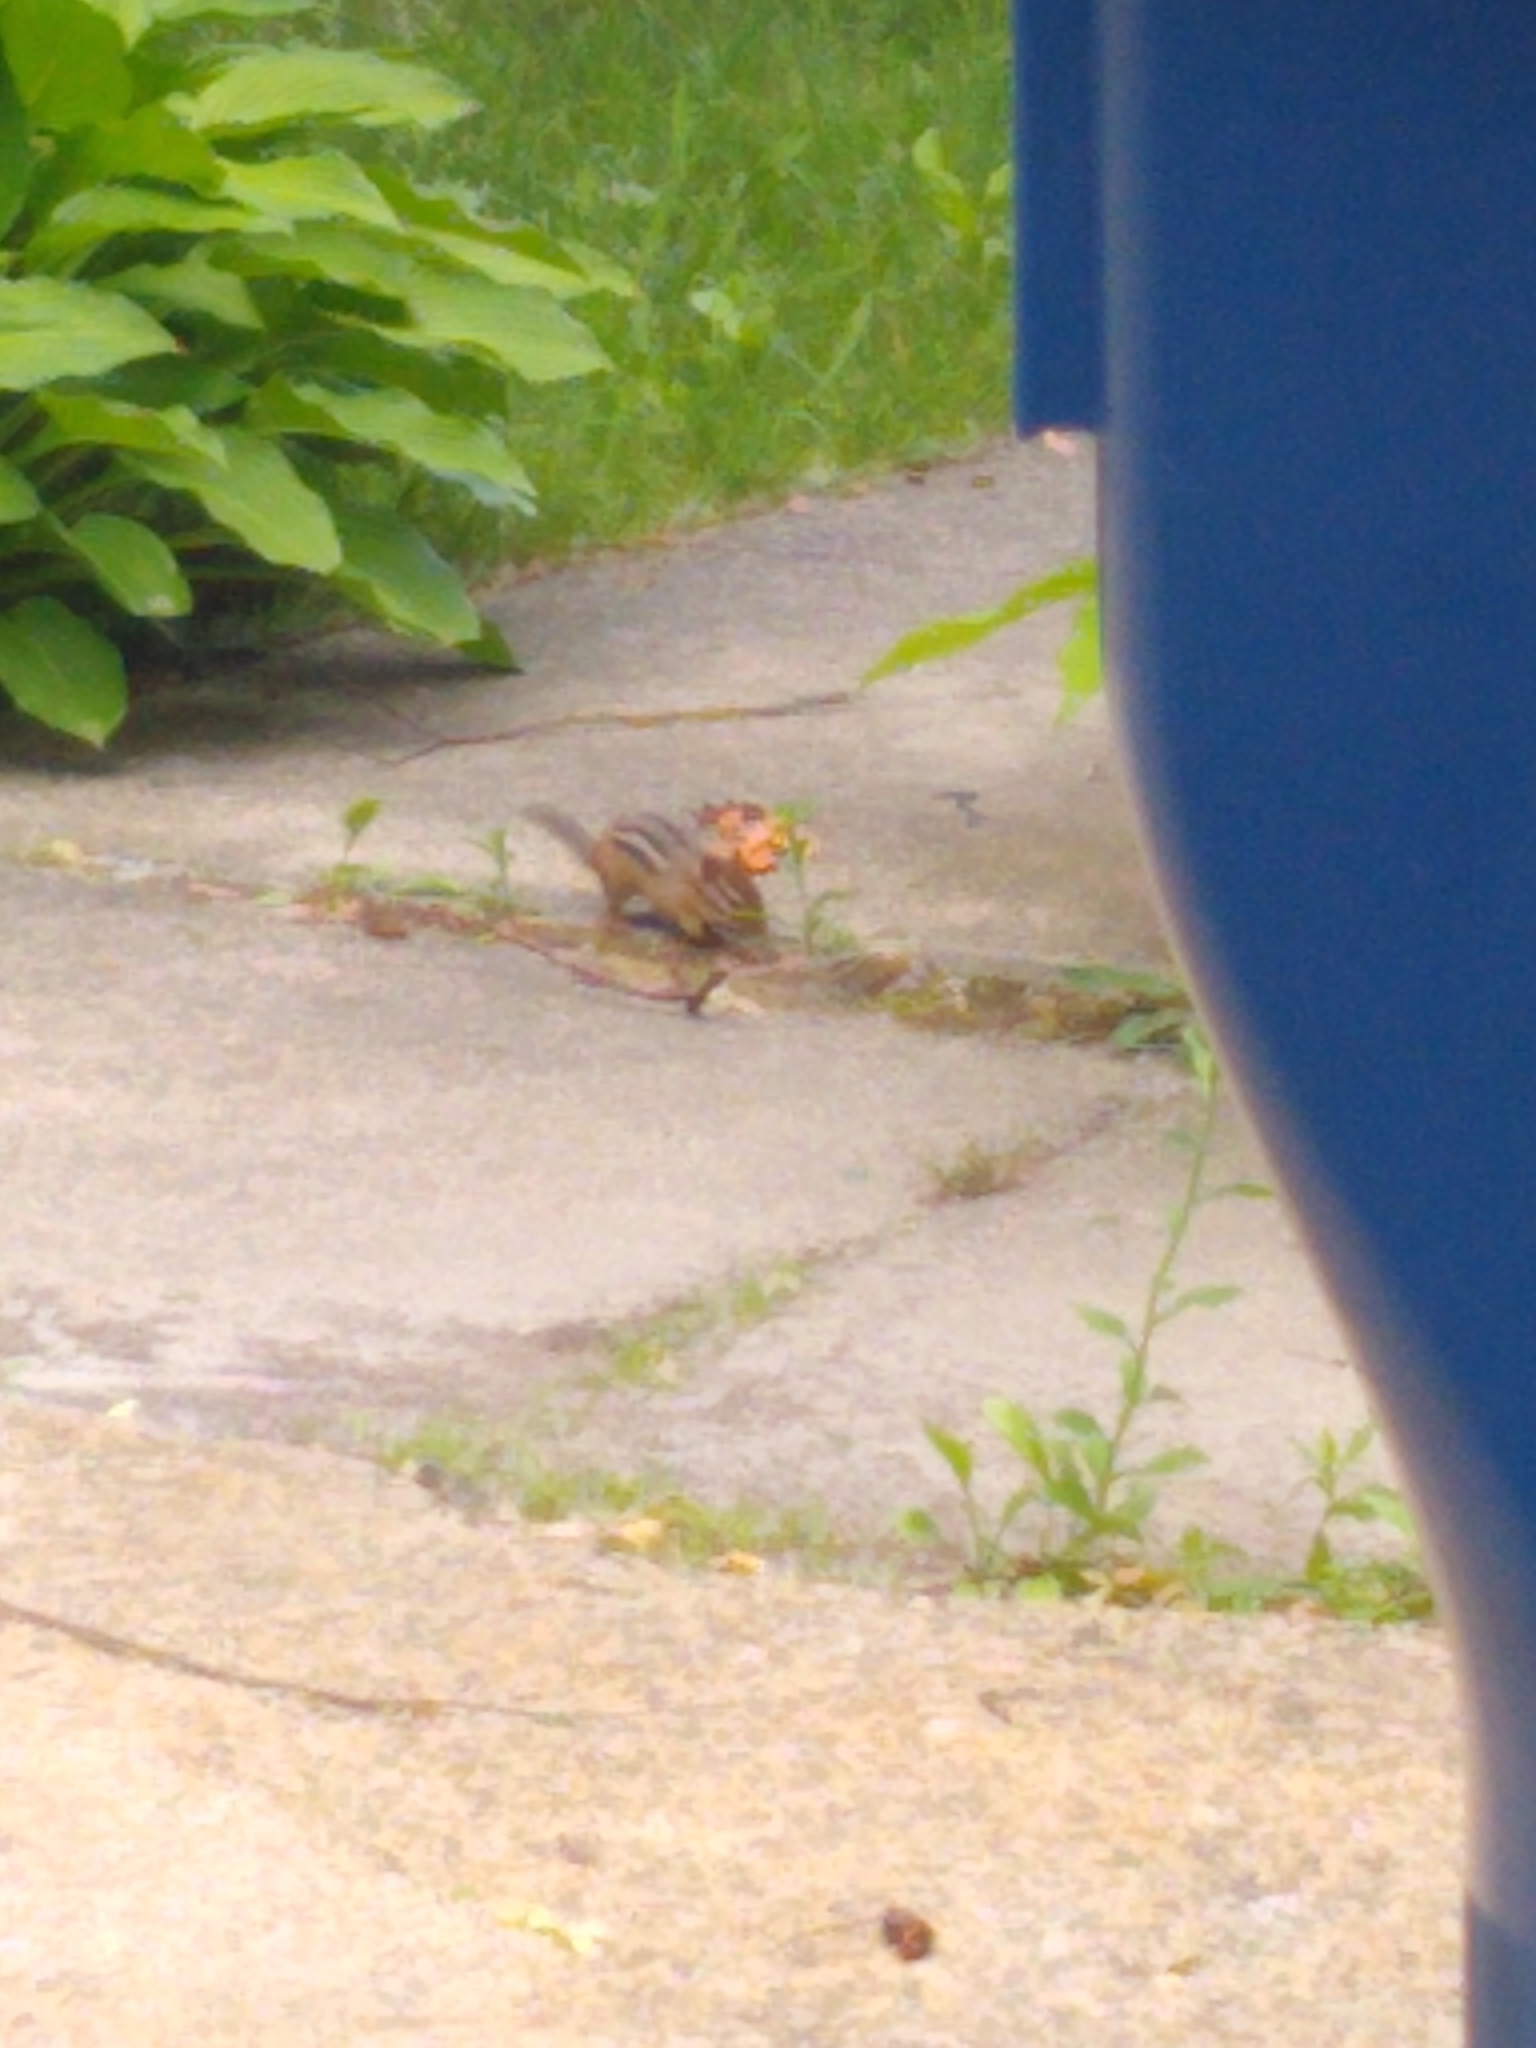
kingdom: Animalia
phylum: Chordata
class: Mammalia
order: Rodentia
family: Sciuridae
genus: Tamias
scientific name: Tamias striatus
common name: Eastern chipmunk
